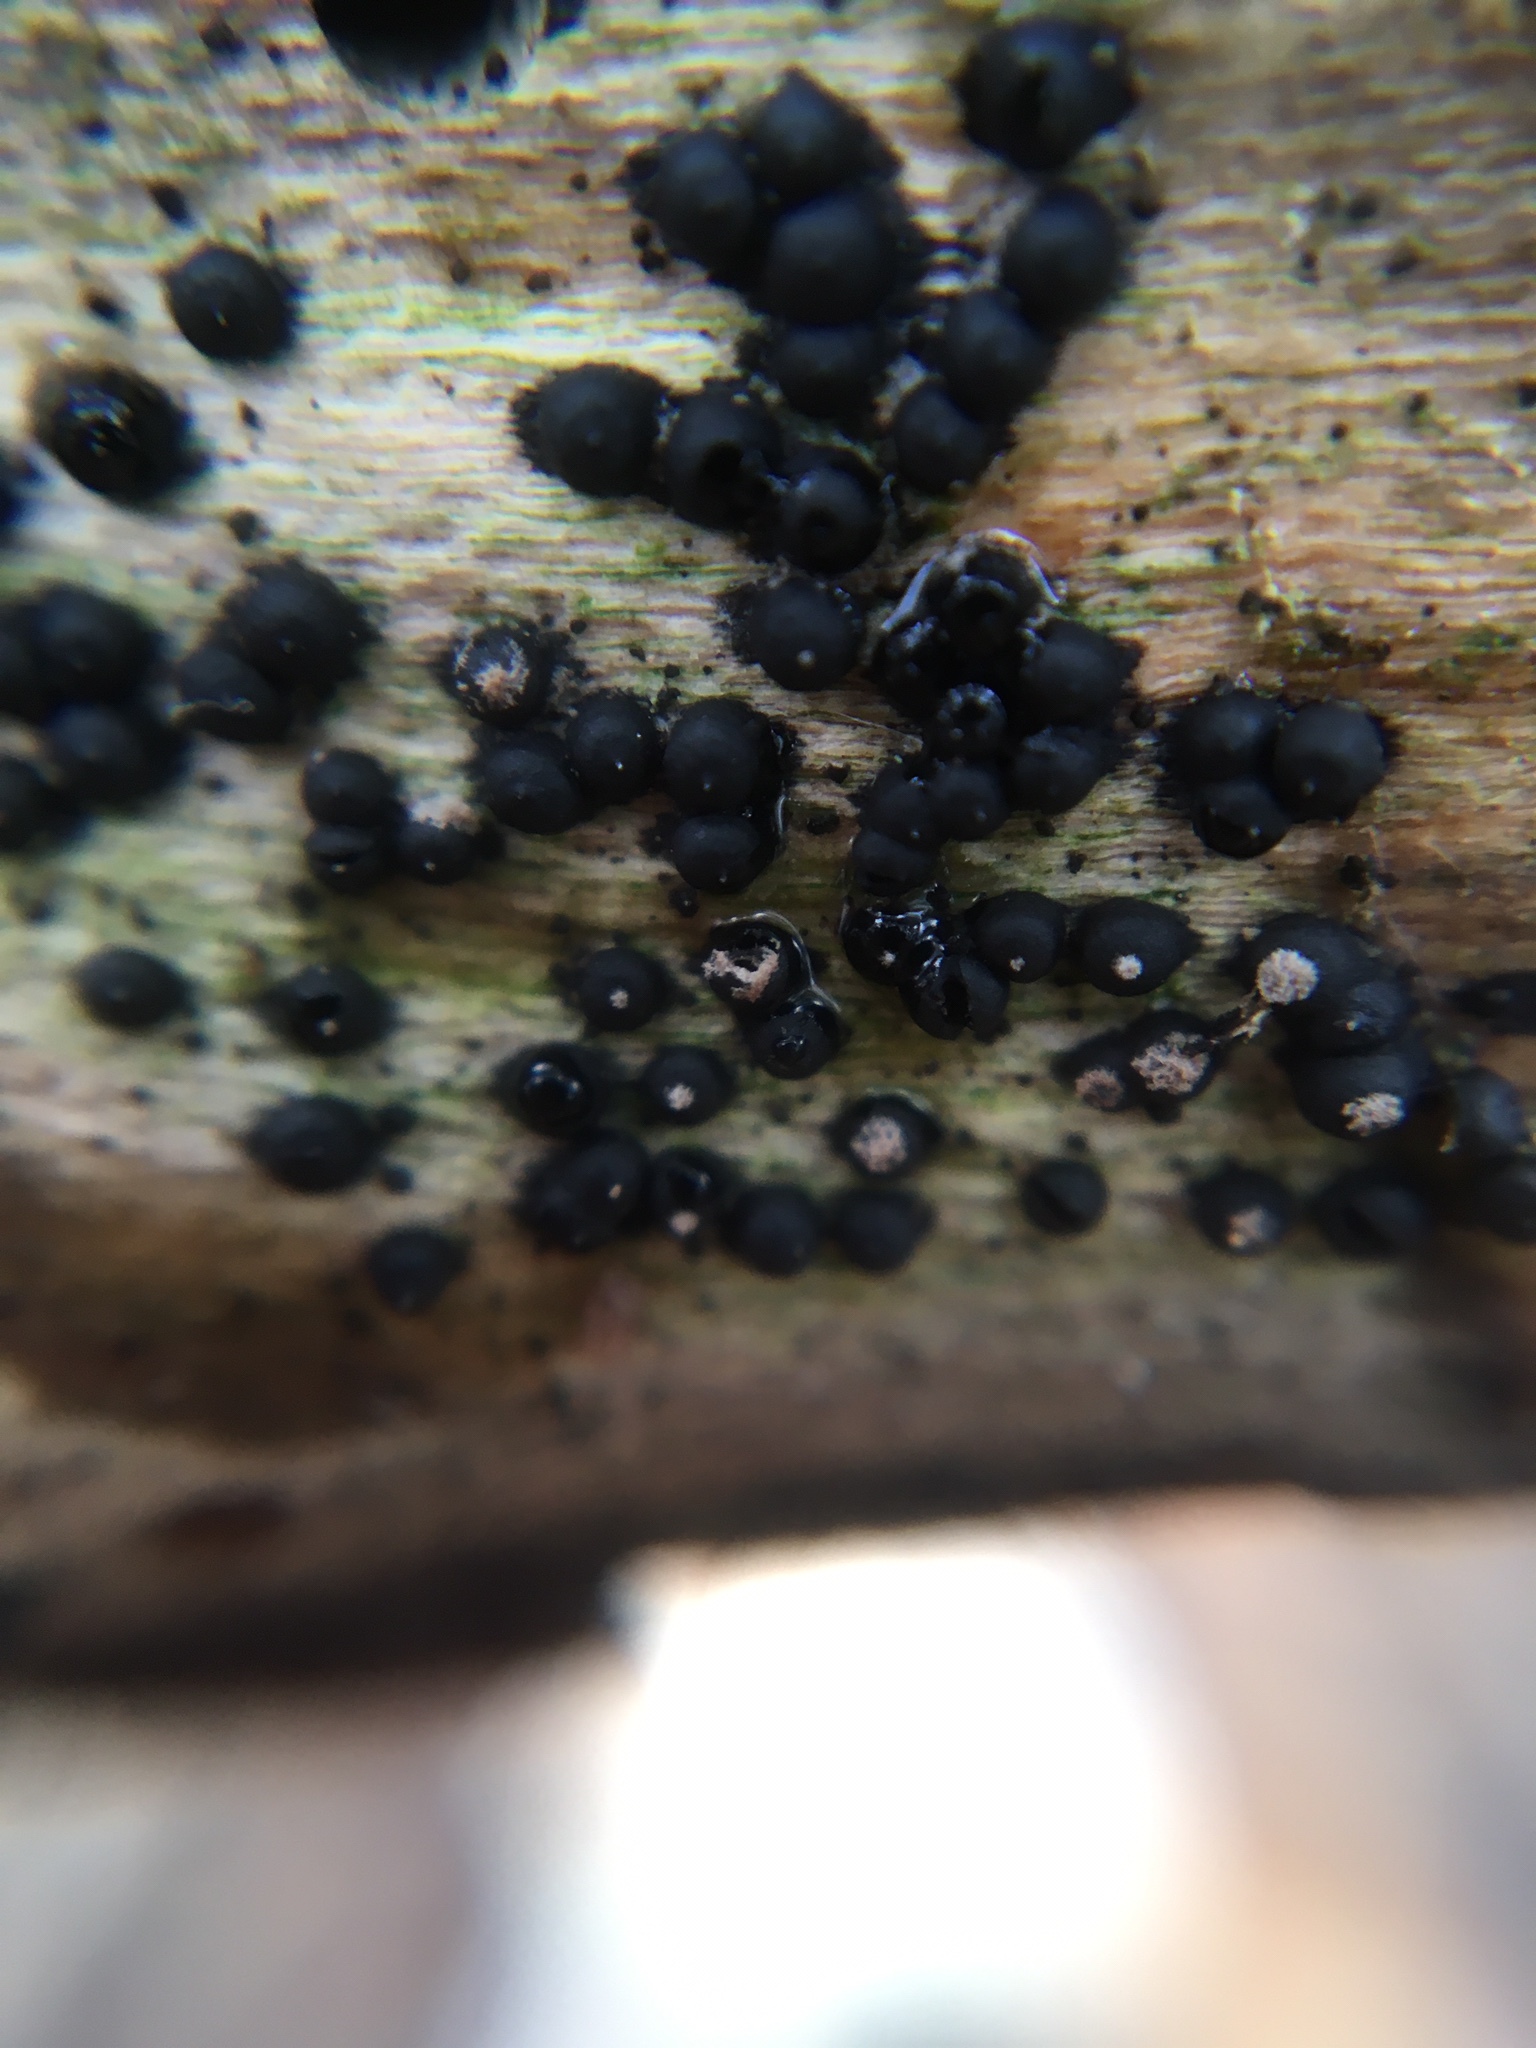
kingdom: Fungi
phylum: Ascomycota
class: Sordariomycetes
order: Xylariales
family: Xylariaceae
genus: Rosellinia
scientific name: Rosellinia subiculata
